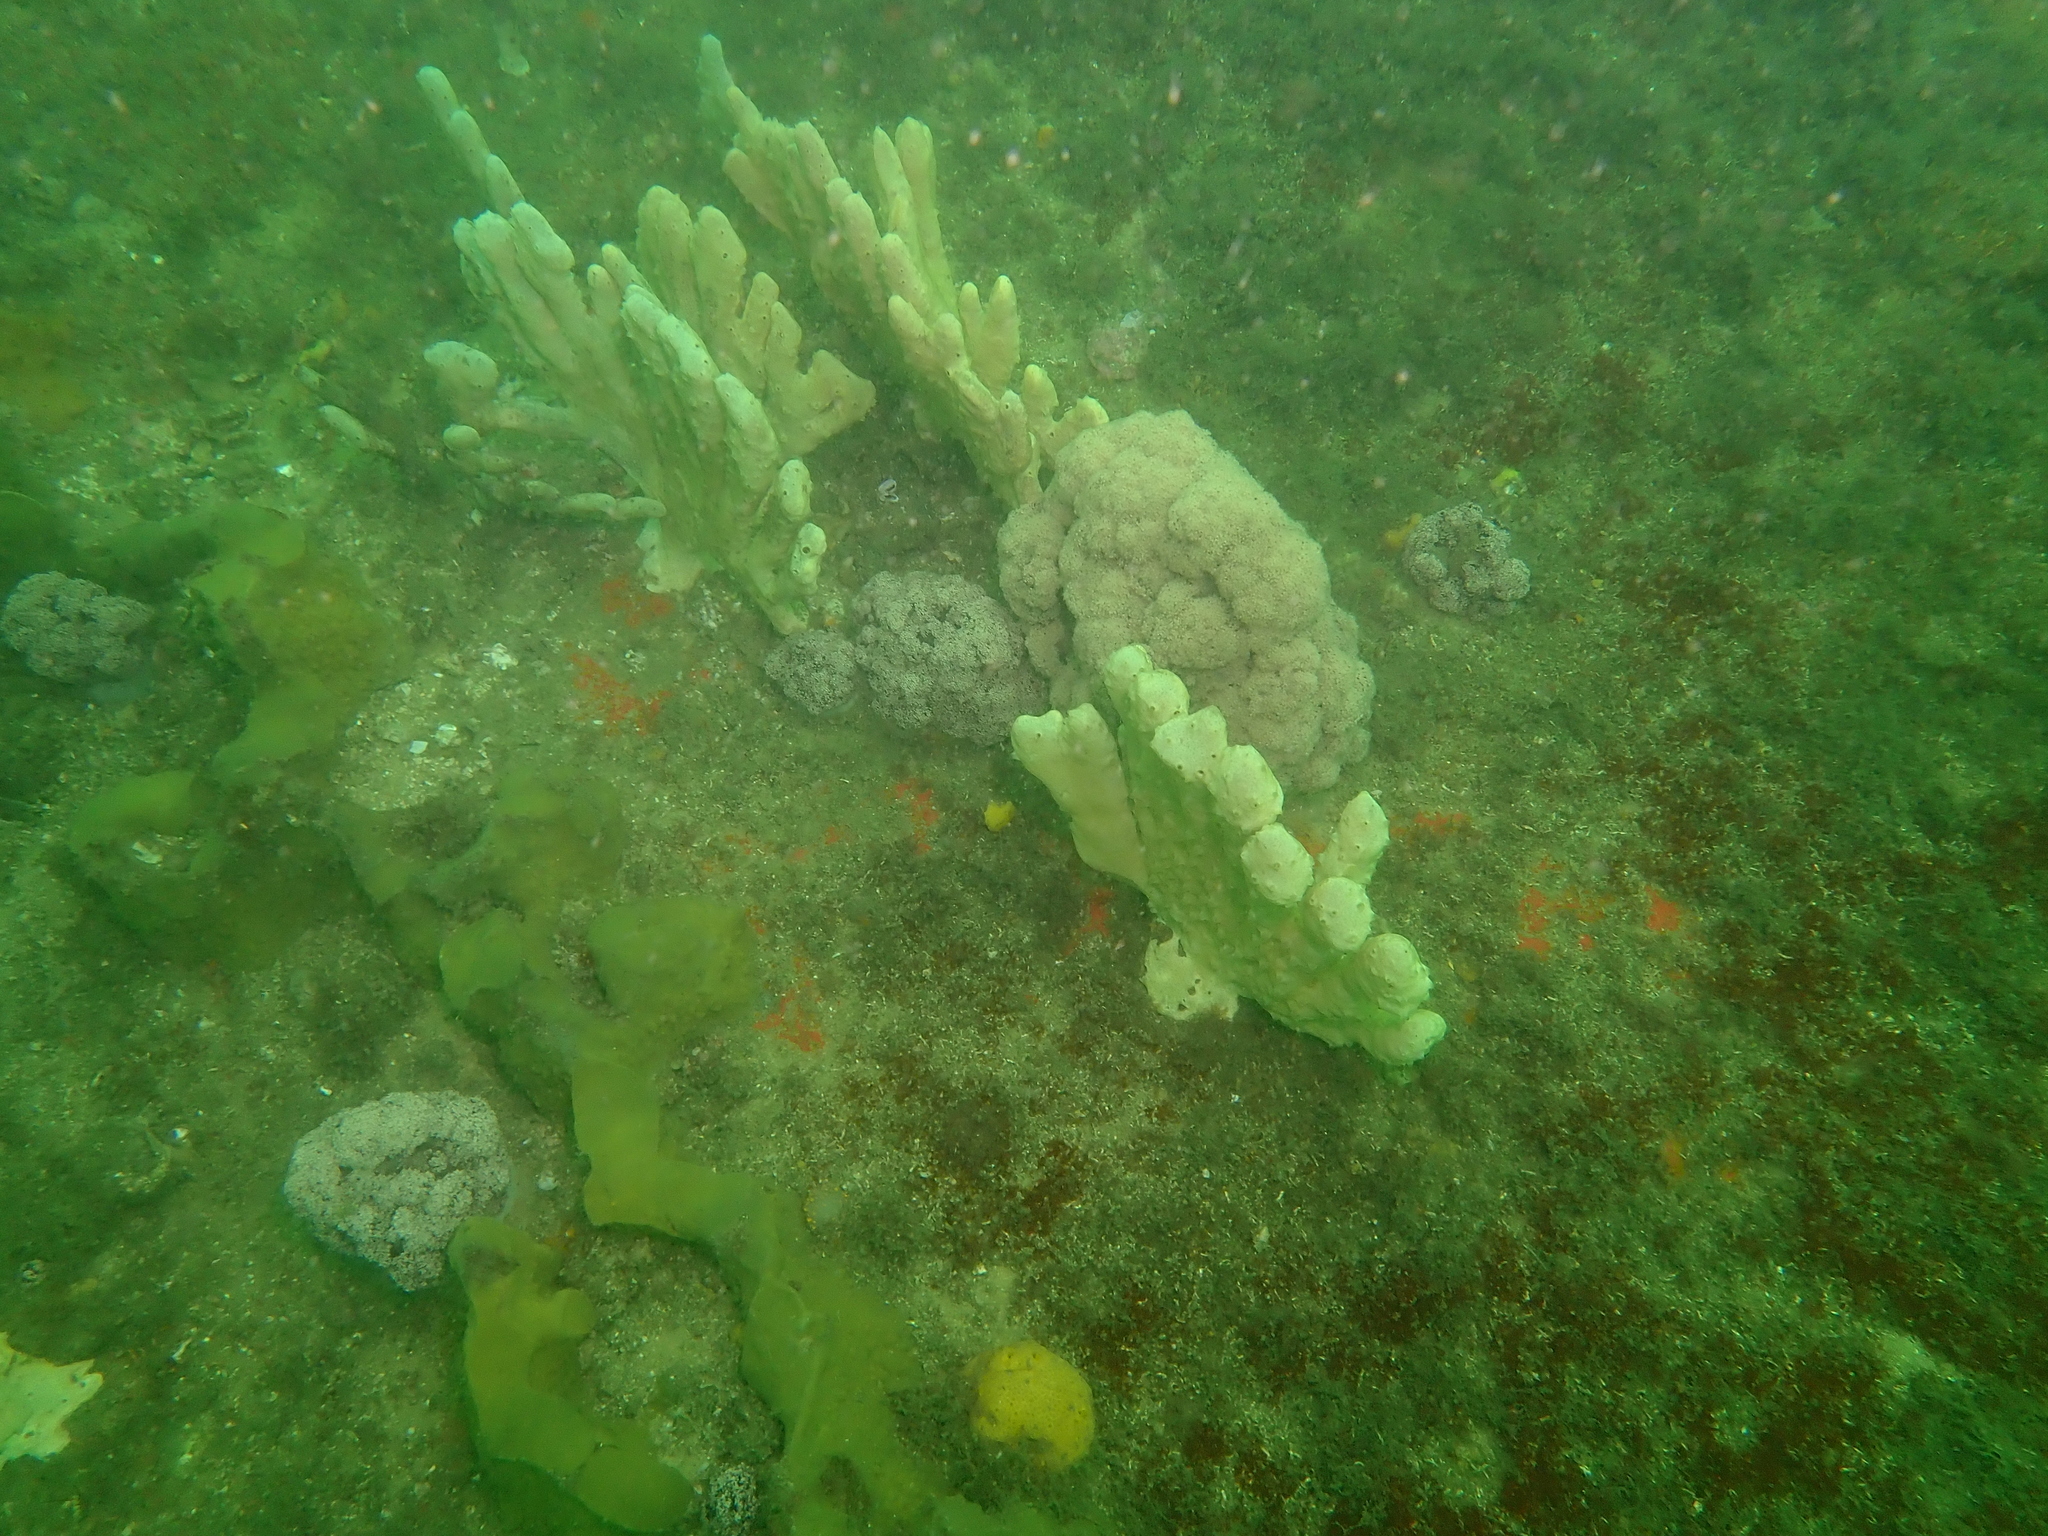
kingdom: Animalia
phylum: Cnidaria
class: Anthozoa
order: Malacalcyonacea
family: Nephtheidae
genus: Dendronephthya
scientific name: Dendronephthya australis
